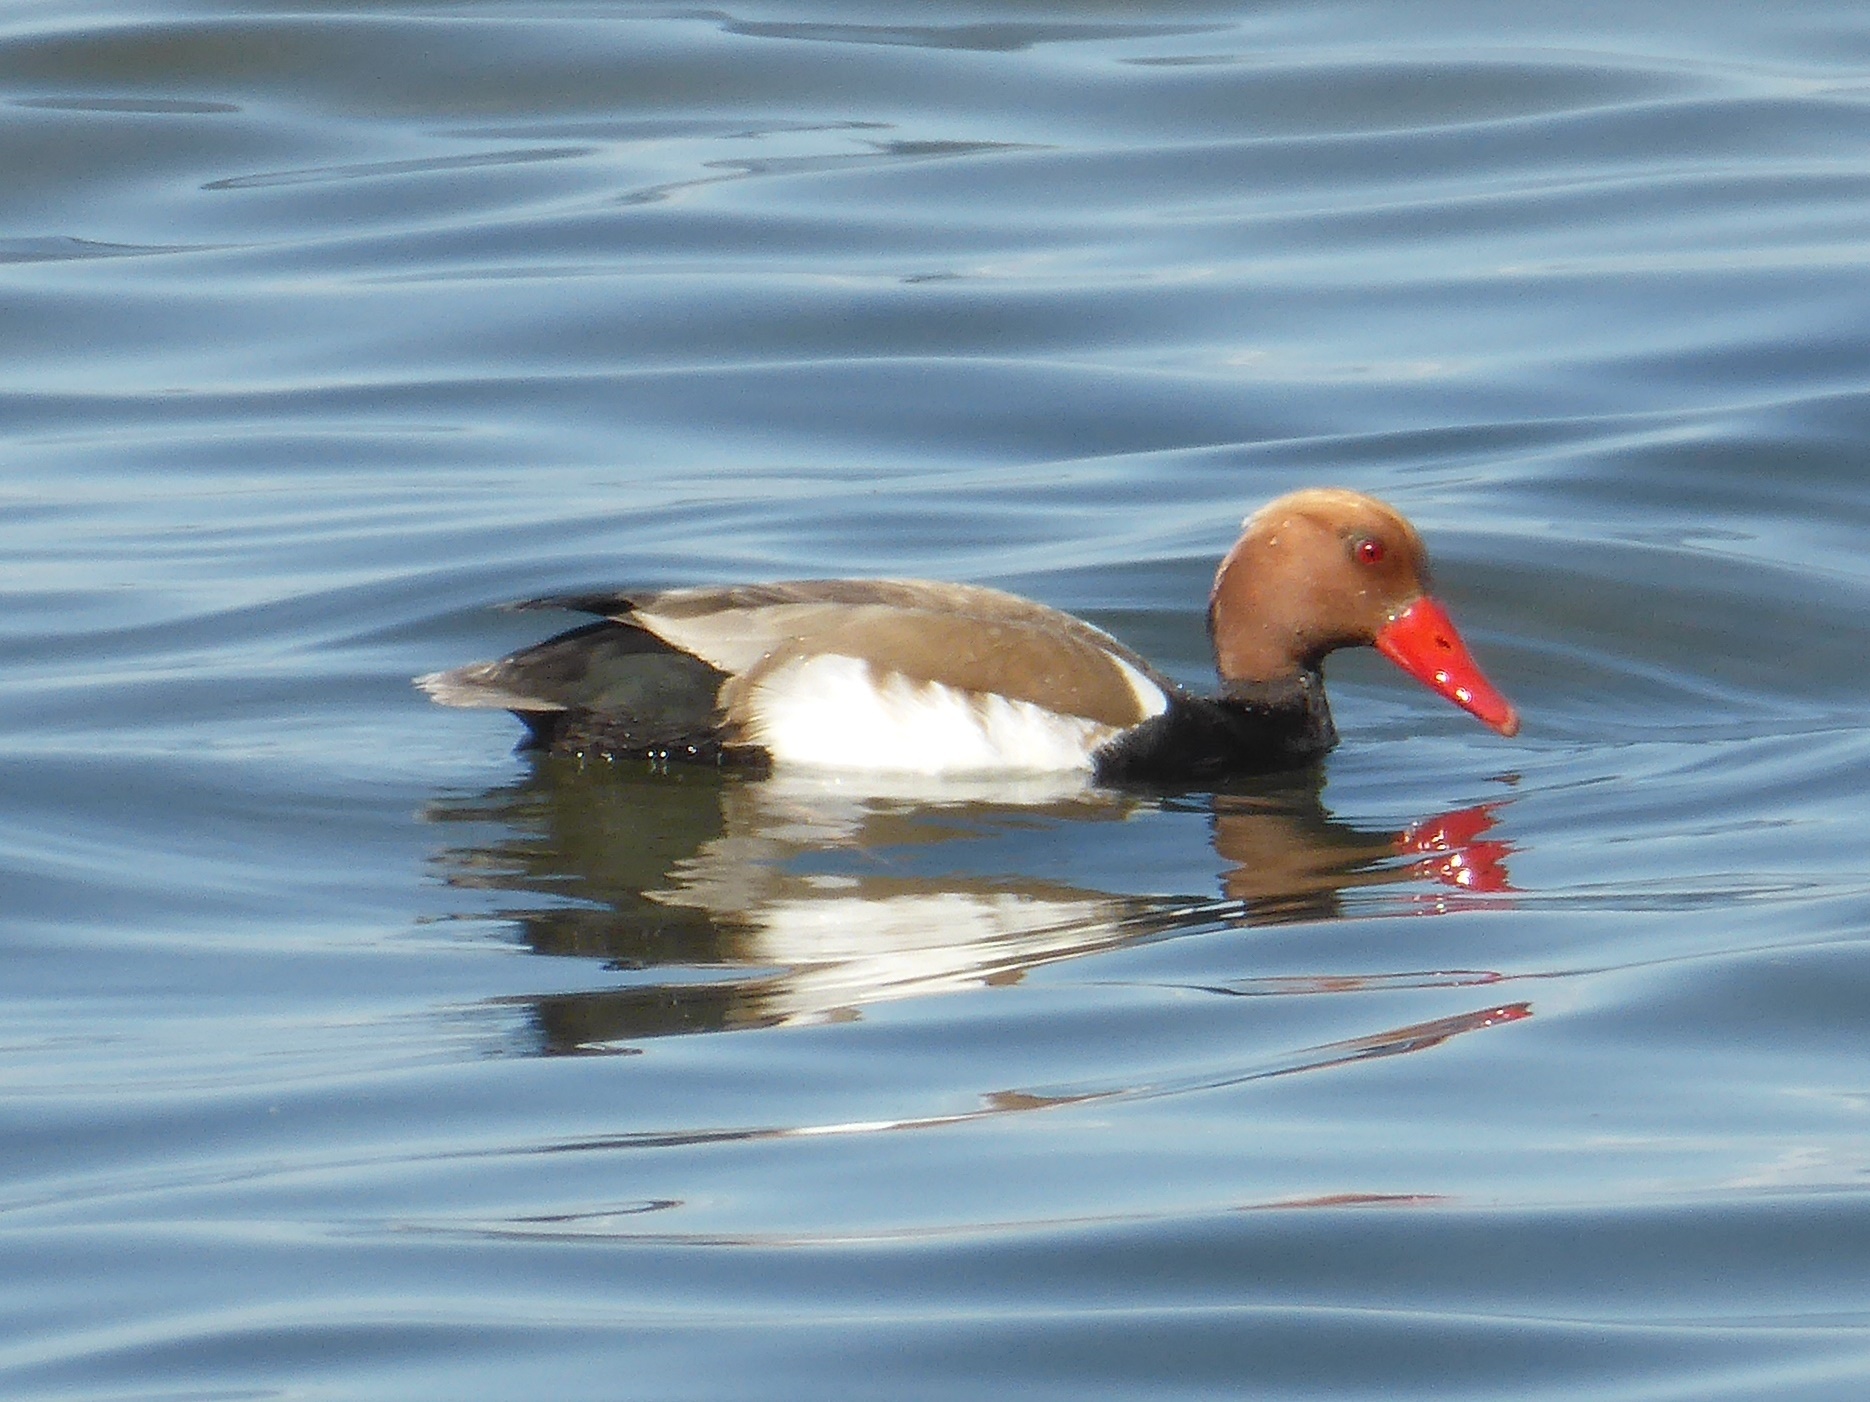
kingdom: Animalia
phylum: Chordata
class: Aves
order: Anseriformes
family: Anatidae
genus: Netta
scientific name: Netta rufina
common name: Red-crested pochard
